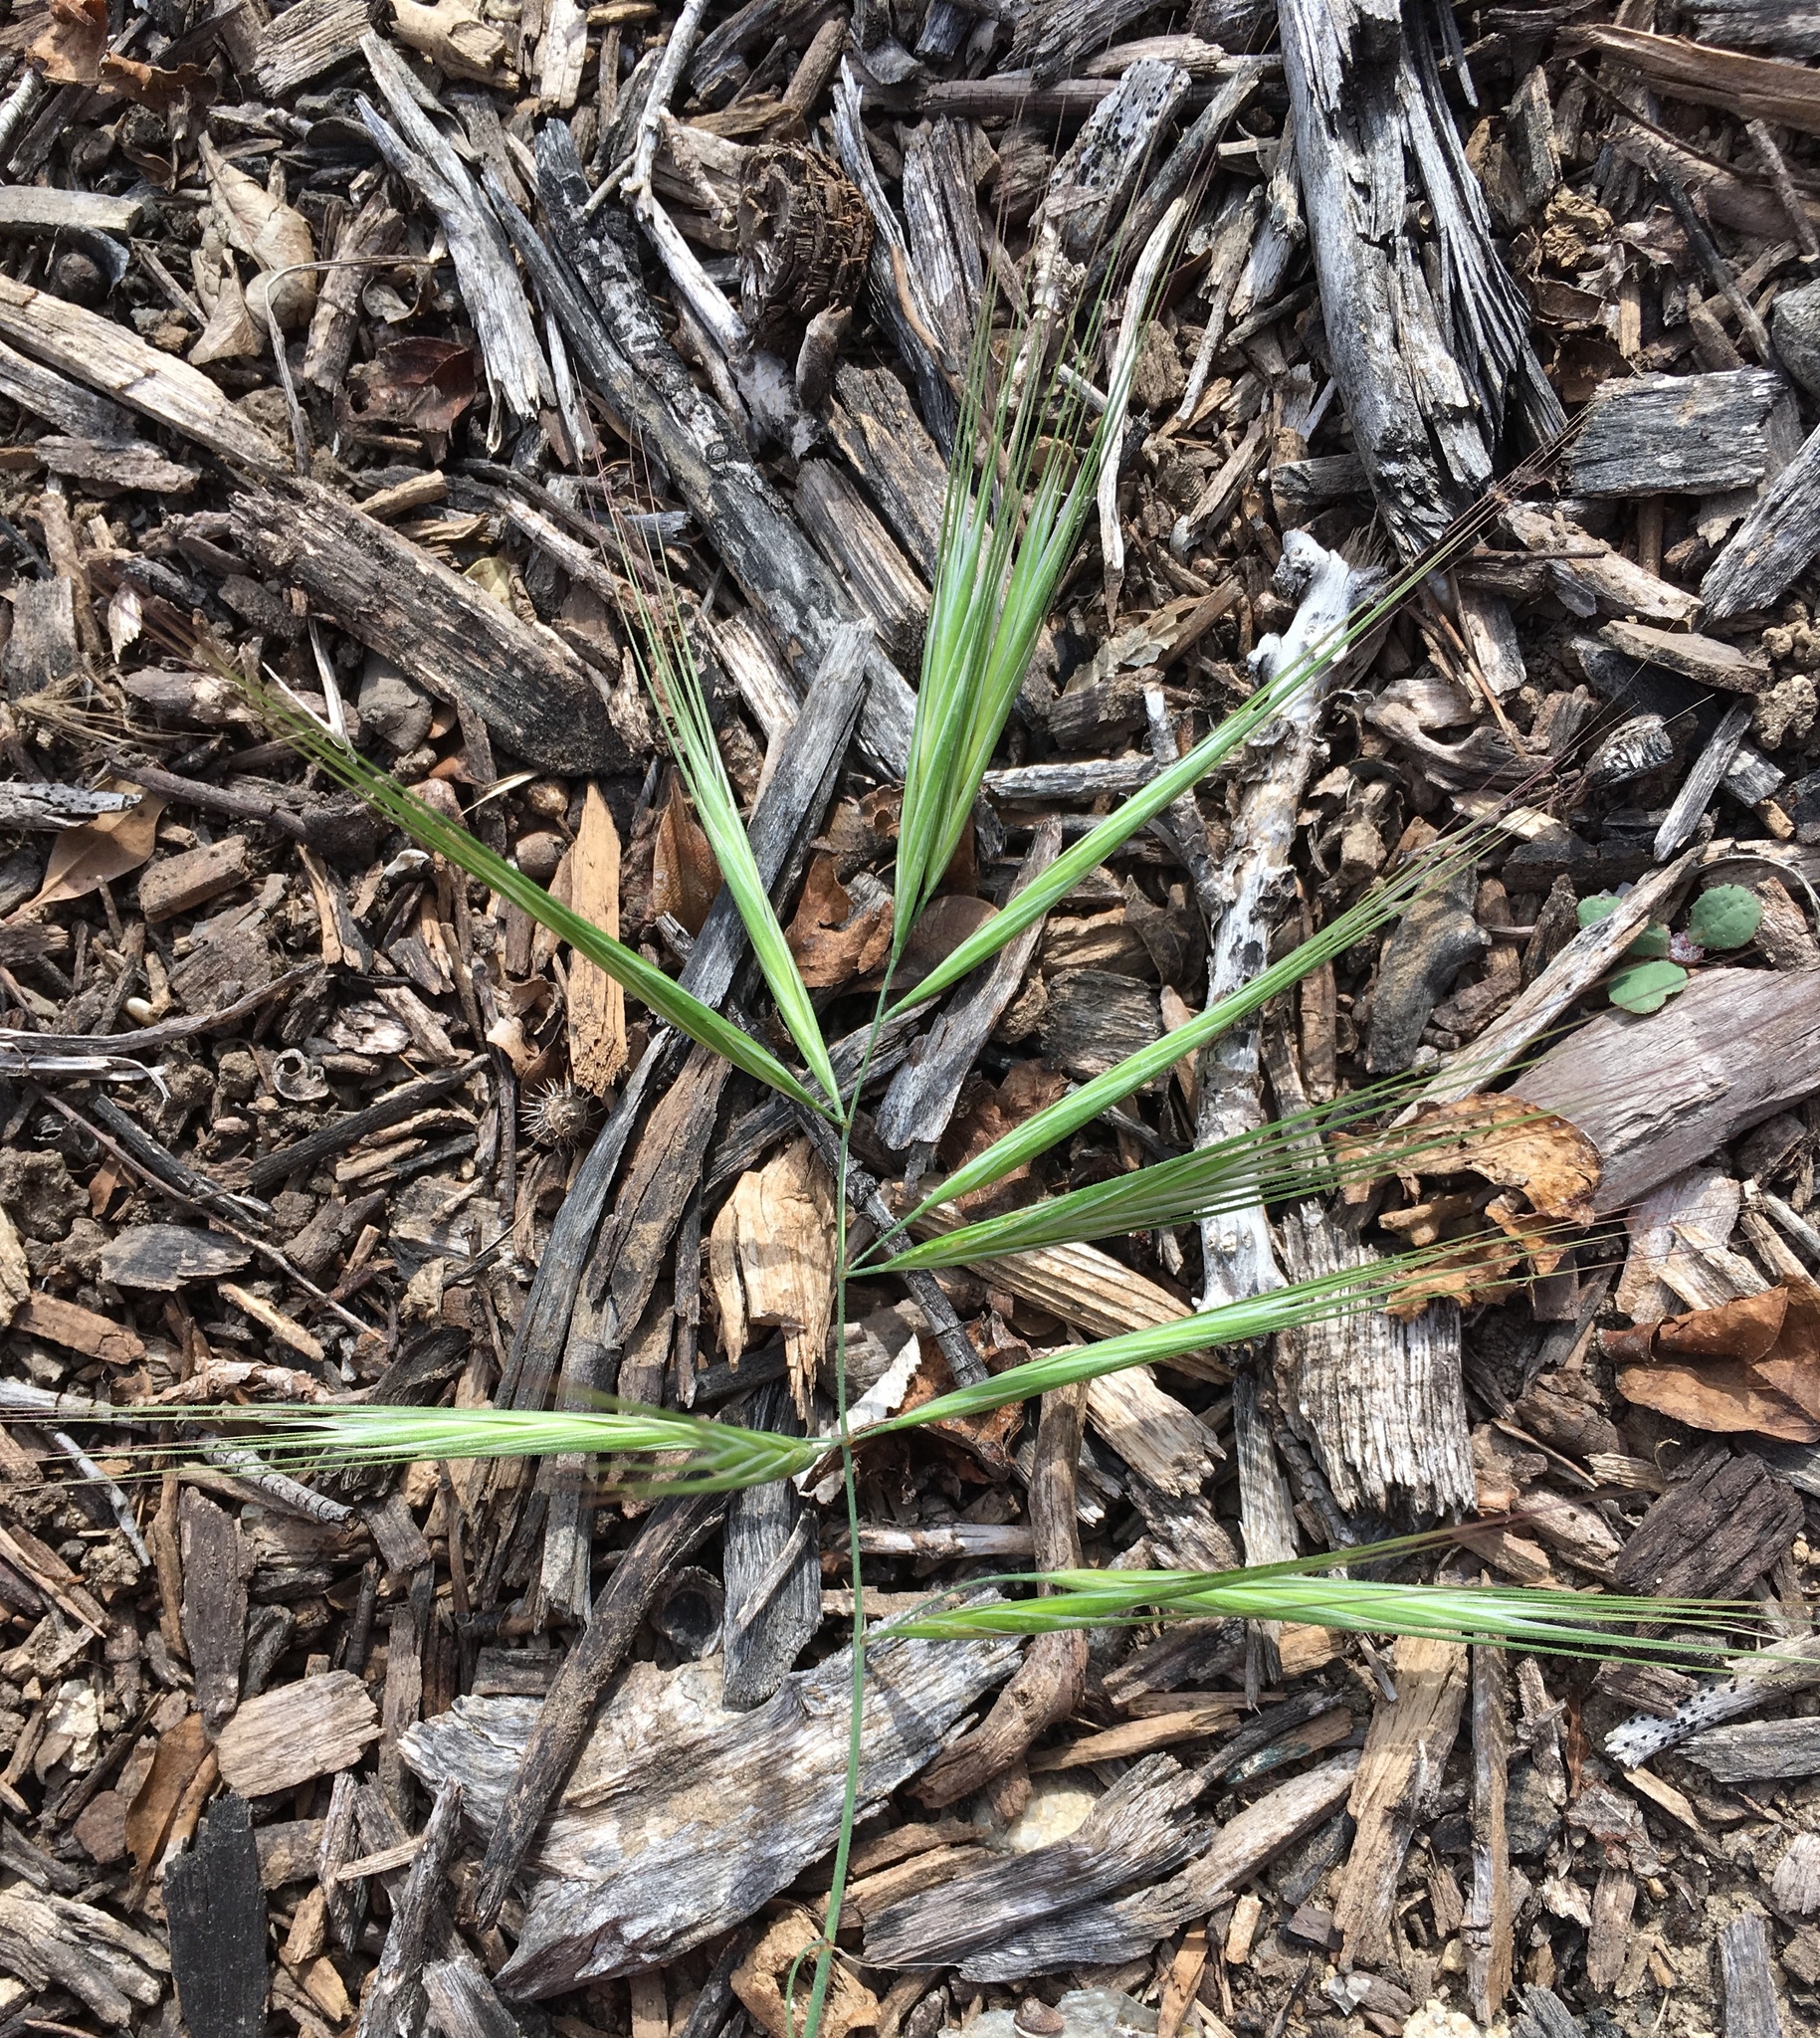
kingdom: Plantae
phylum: Tracheophyta
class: Liliopsida
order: Poales
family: Poaceae
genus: Bromus
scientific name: Bromus diandrus
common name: Ripgut brome
